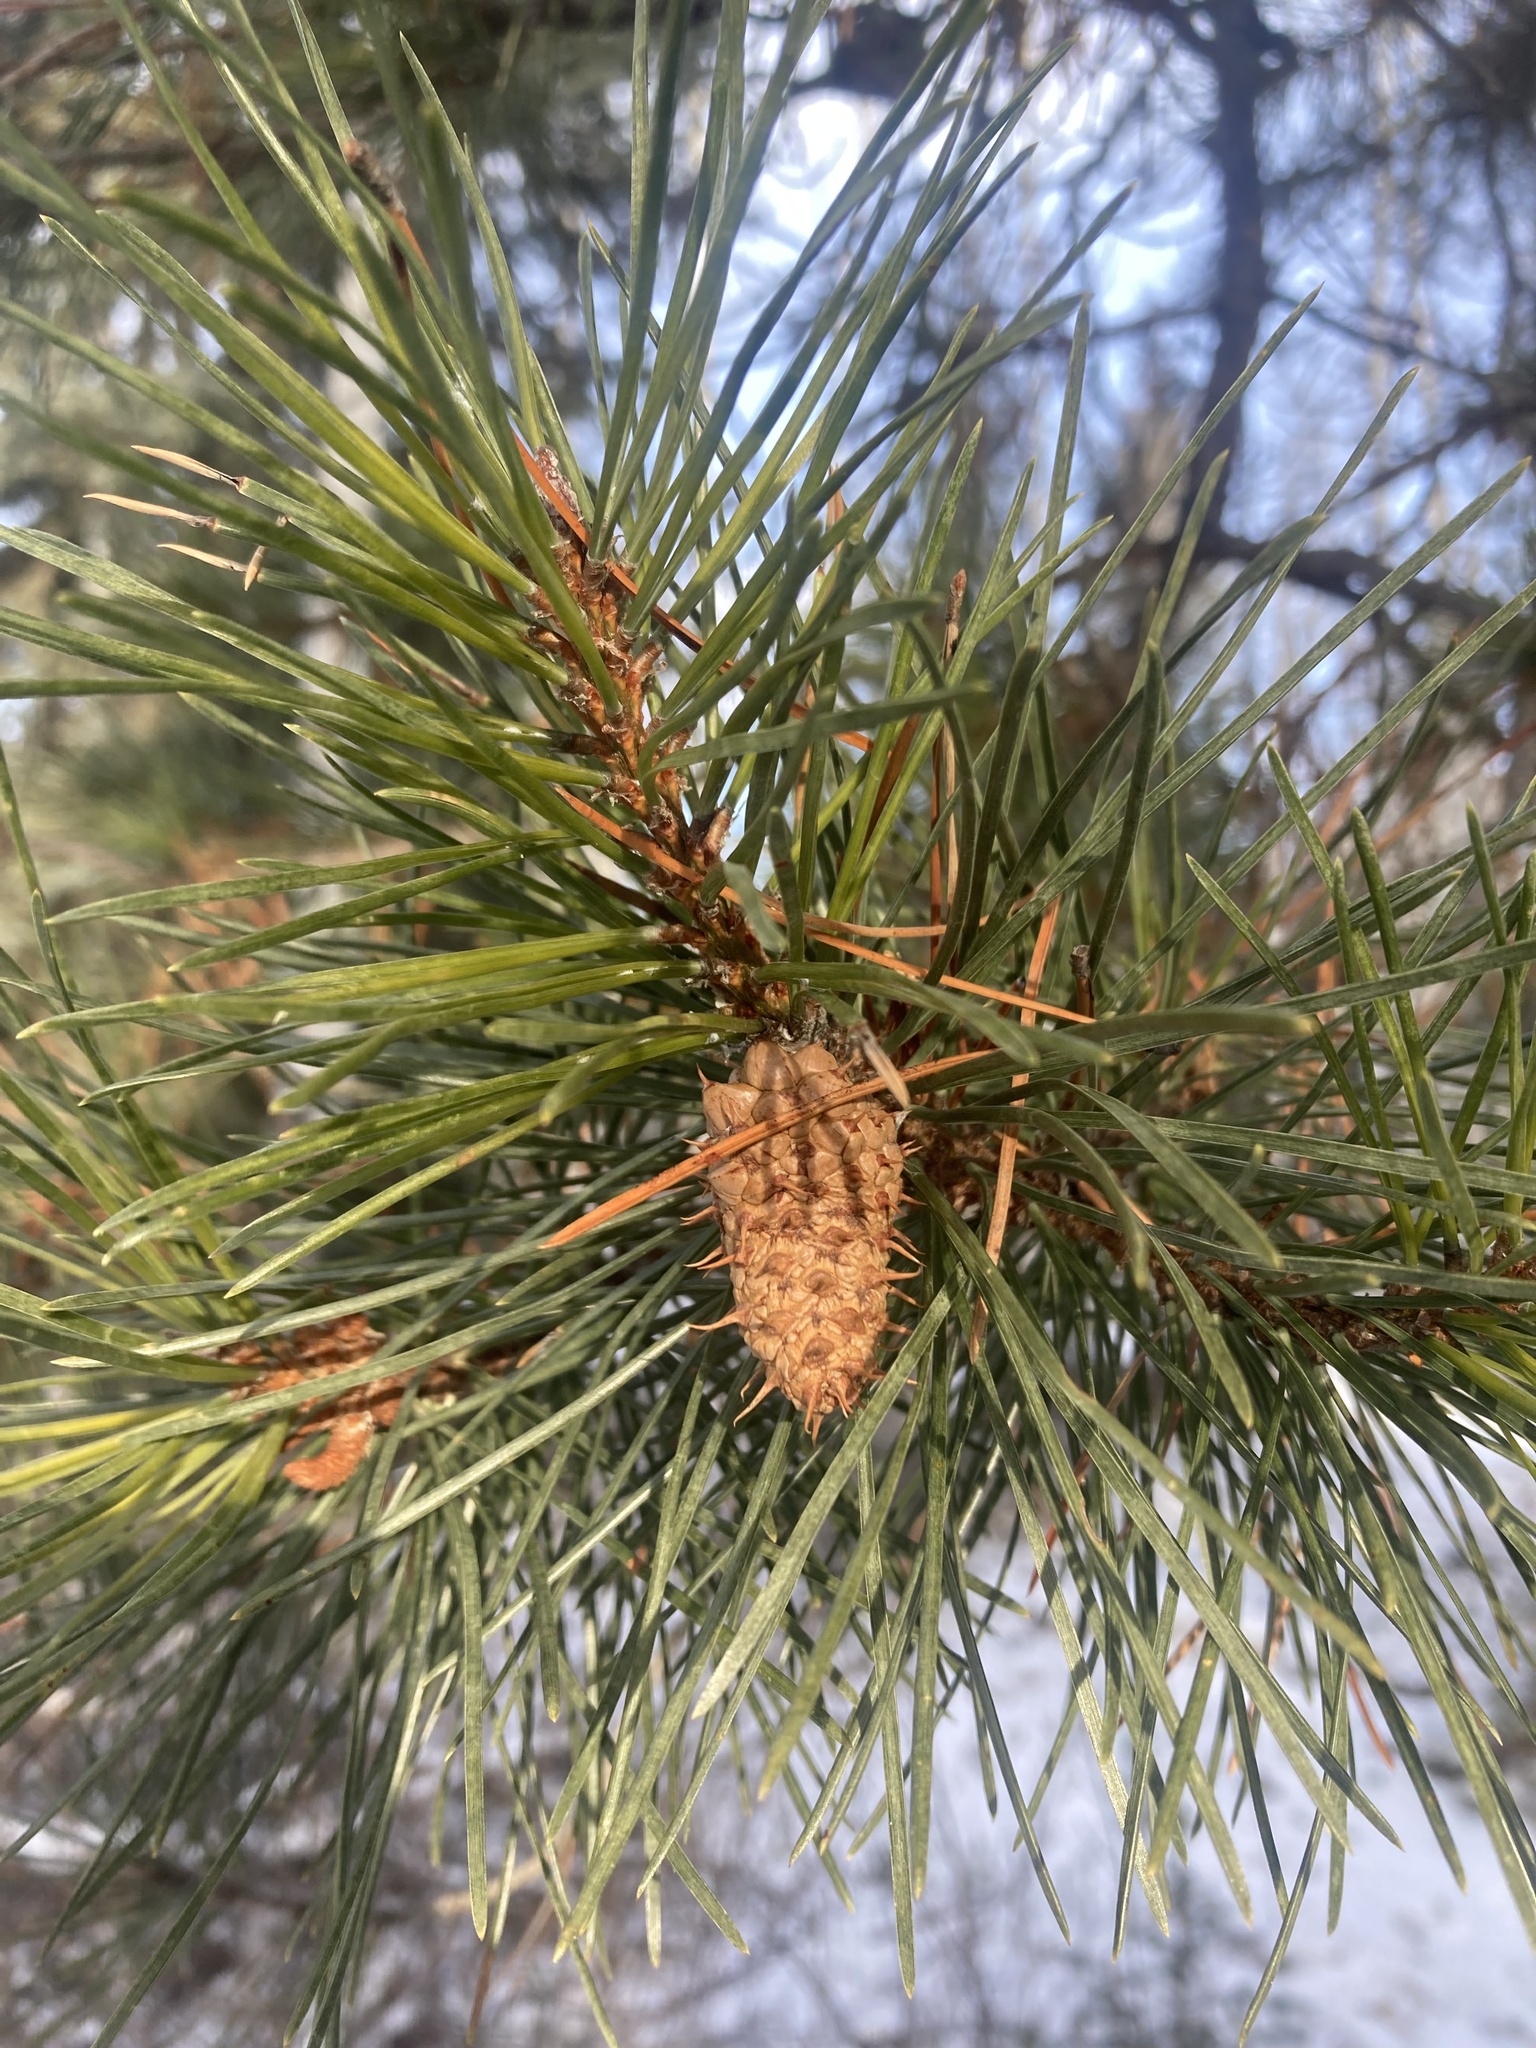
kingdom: Plantae
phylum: Tracheophyta
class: Pinopsida
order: Pinales
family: Pinaceae
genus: Pinus
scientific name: Pinus contorta
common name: Lodgepole pine
